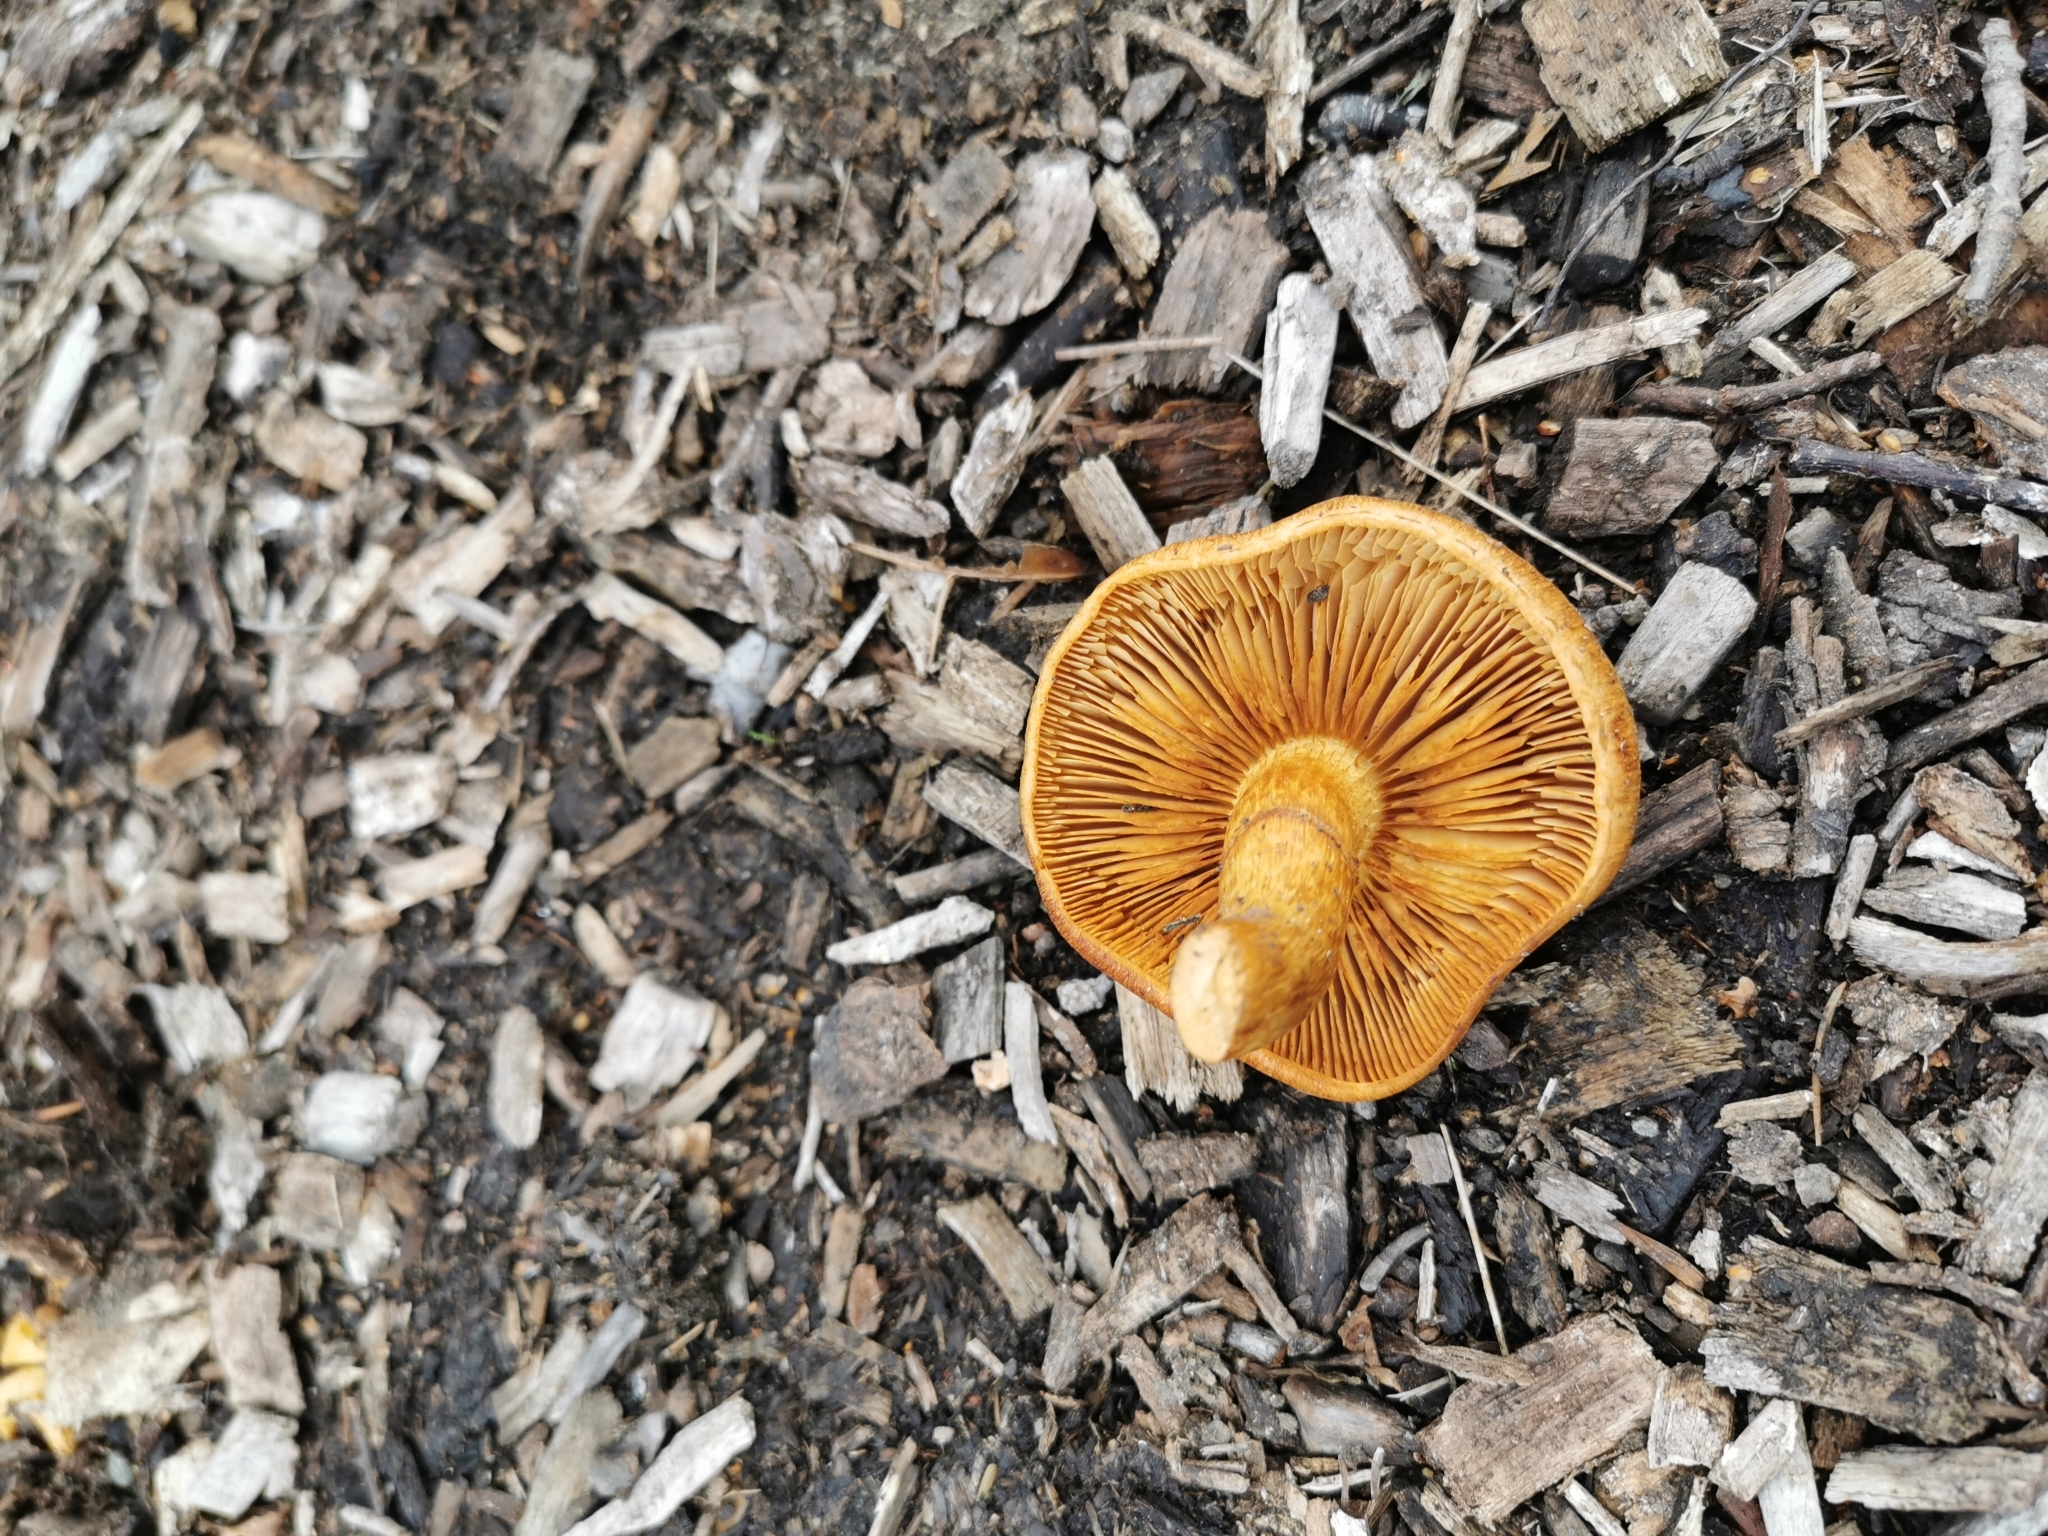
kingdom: Fungi
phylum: Basidiomycota
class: Agaricomycetes
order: Agaricales
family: Hymenogastraceae
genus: Gymnopilus
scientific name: Gymnopilus junonius
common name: Spectacular rustgill
